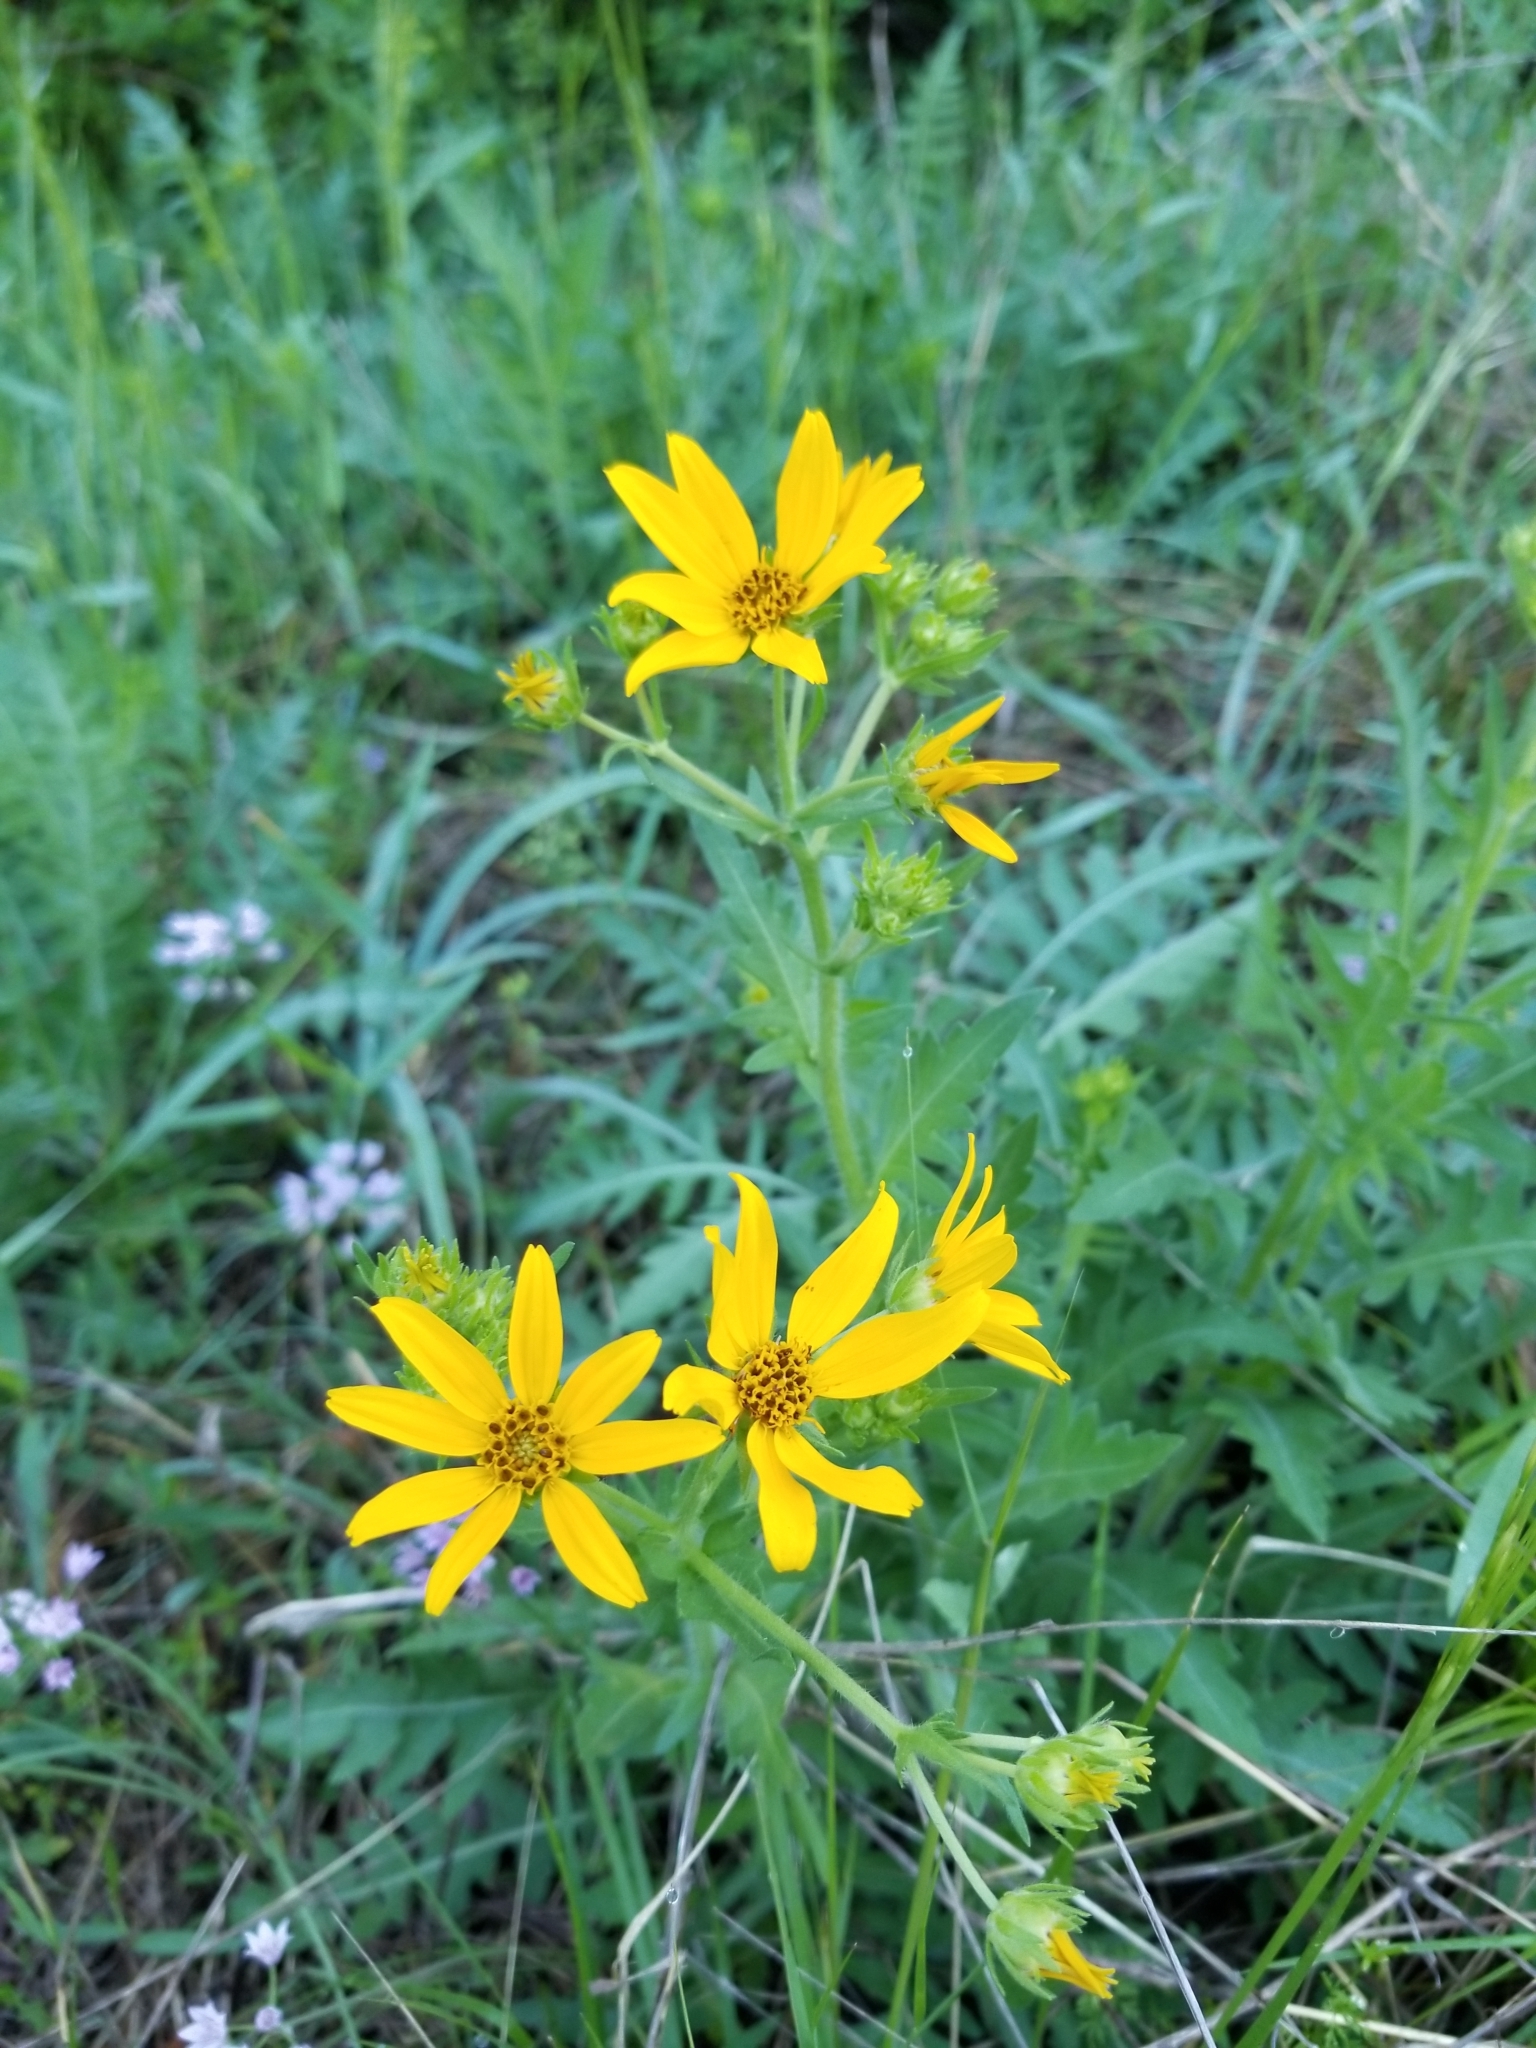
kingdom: Plantae
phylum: Tracheophyta
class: Magnoliopsida
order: Asterales
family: Asteraceae
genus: Engelmannia
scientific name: Engelmannia peristenia
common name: Engelmann's daisy
